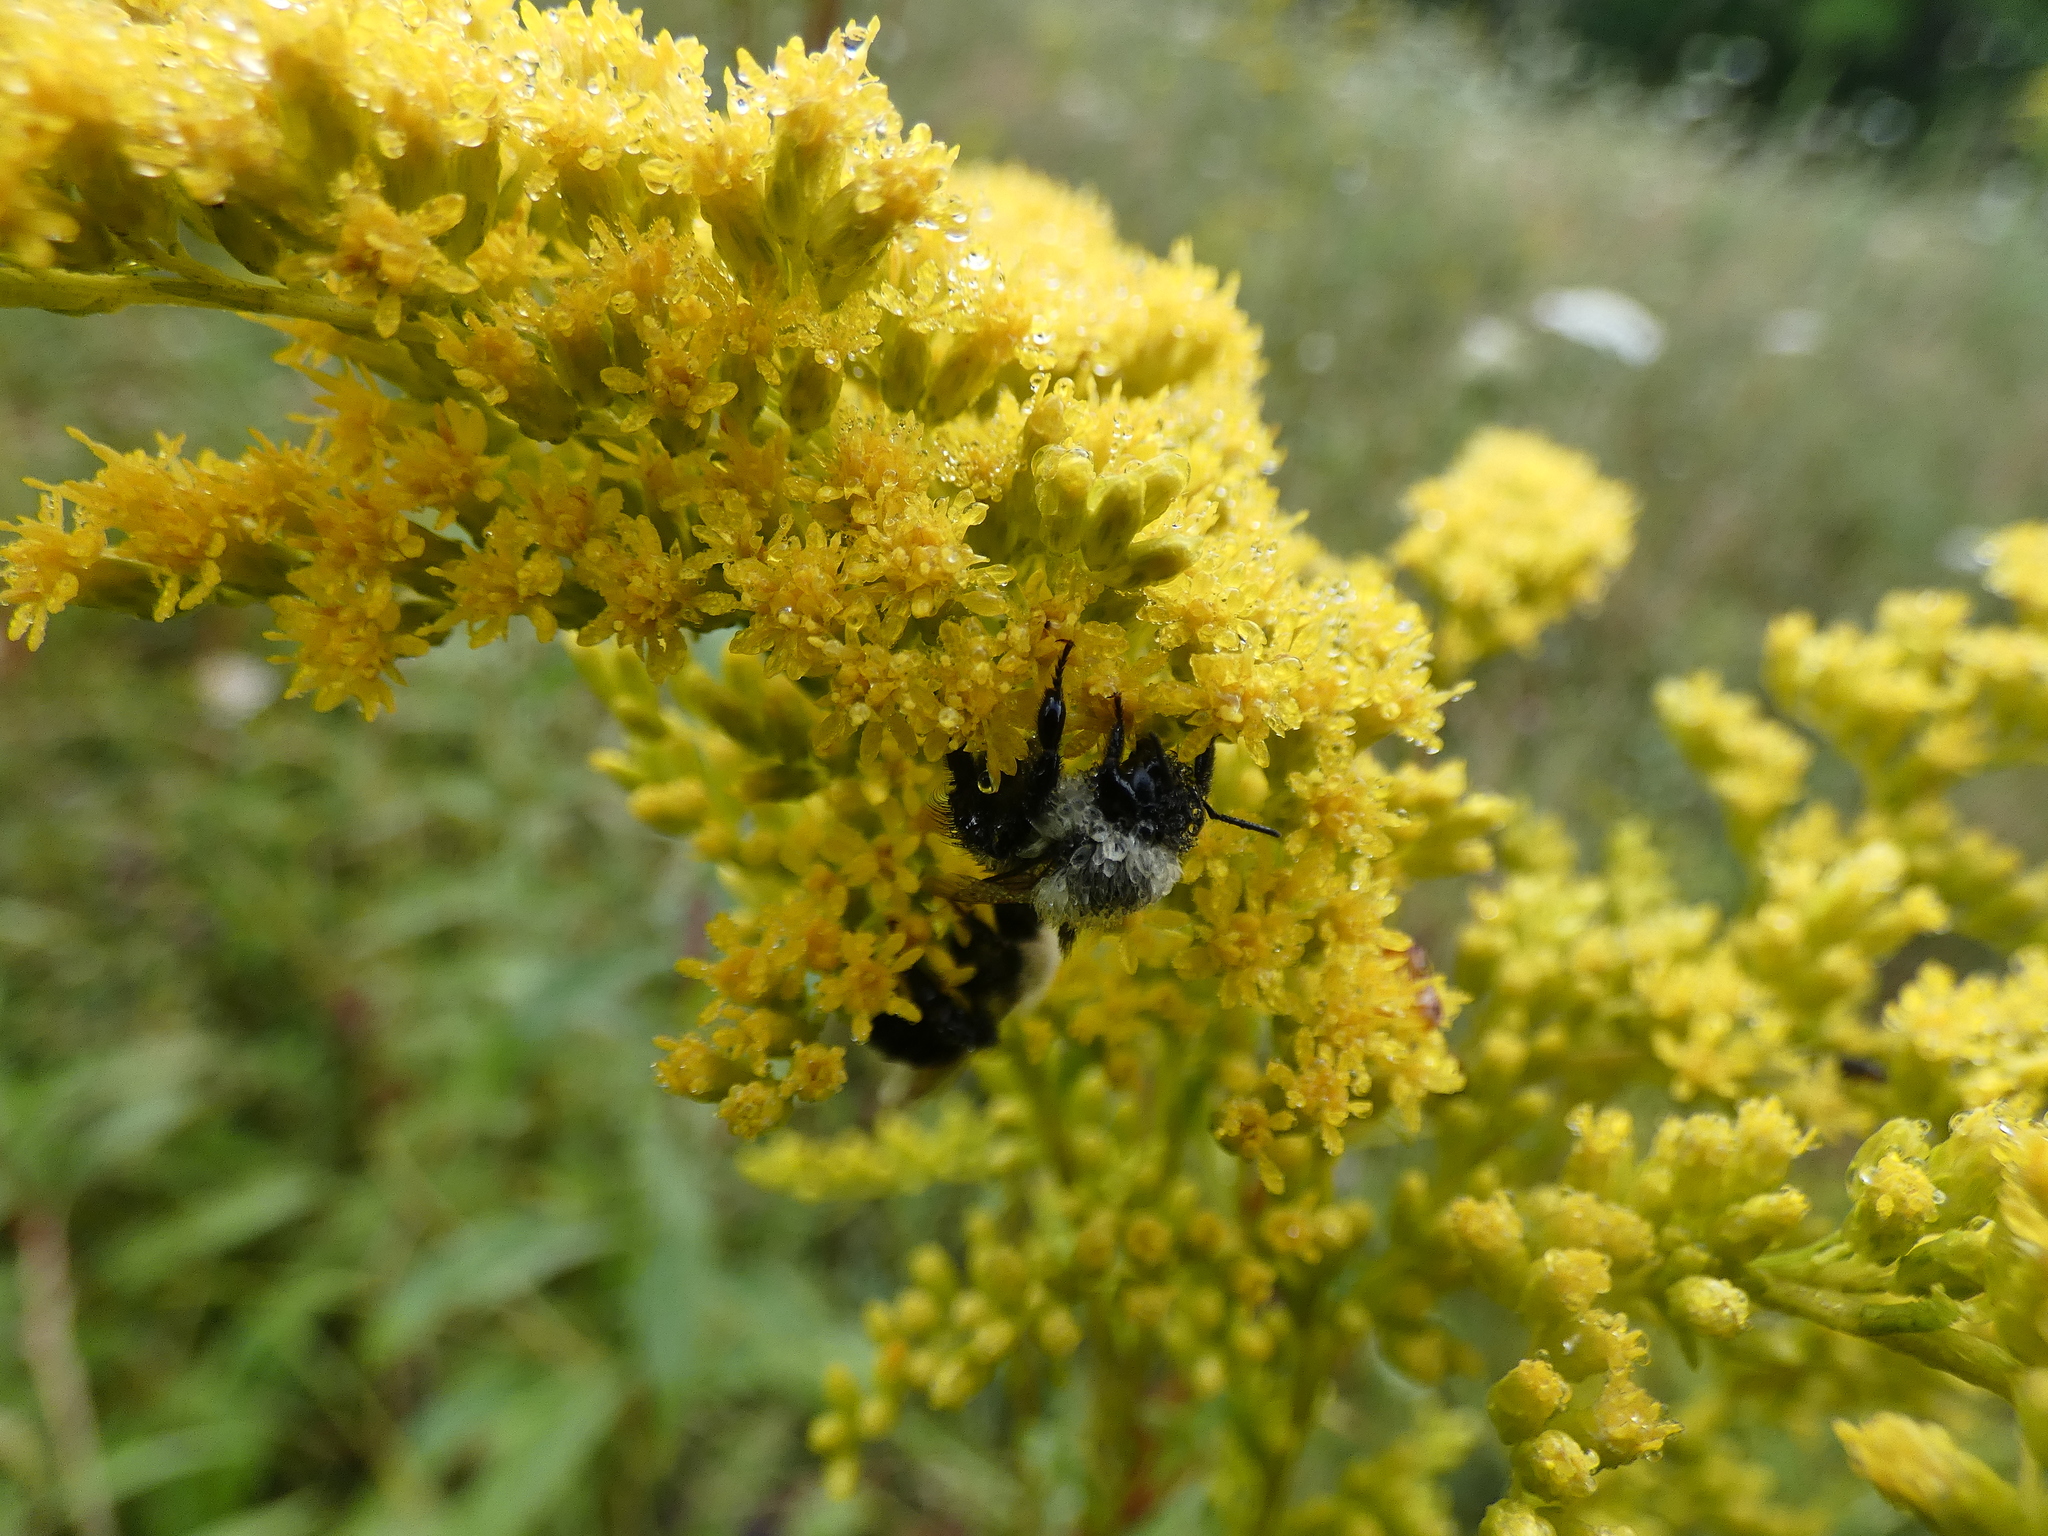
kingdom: Animalia
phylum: Arthropoda
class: Insecta
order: Hymenoptera
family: Apidae
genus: Bombus
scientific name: Bombus impatiens
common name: Common eastern bumble bee
